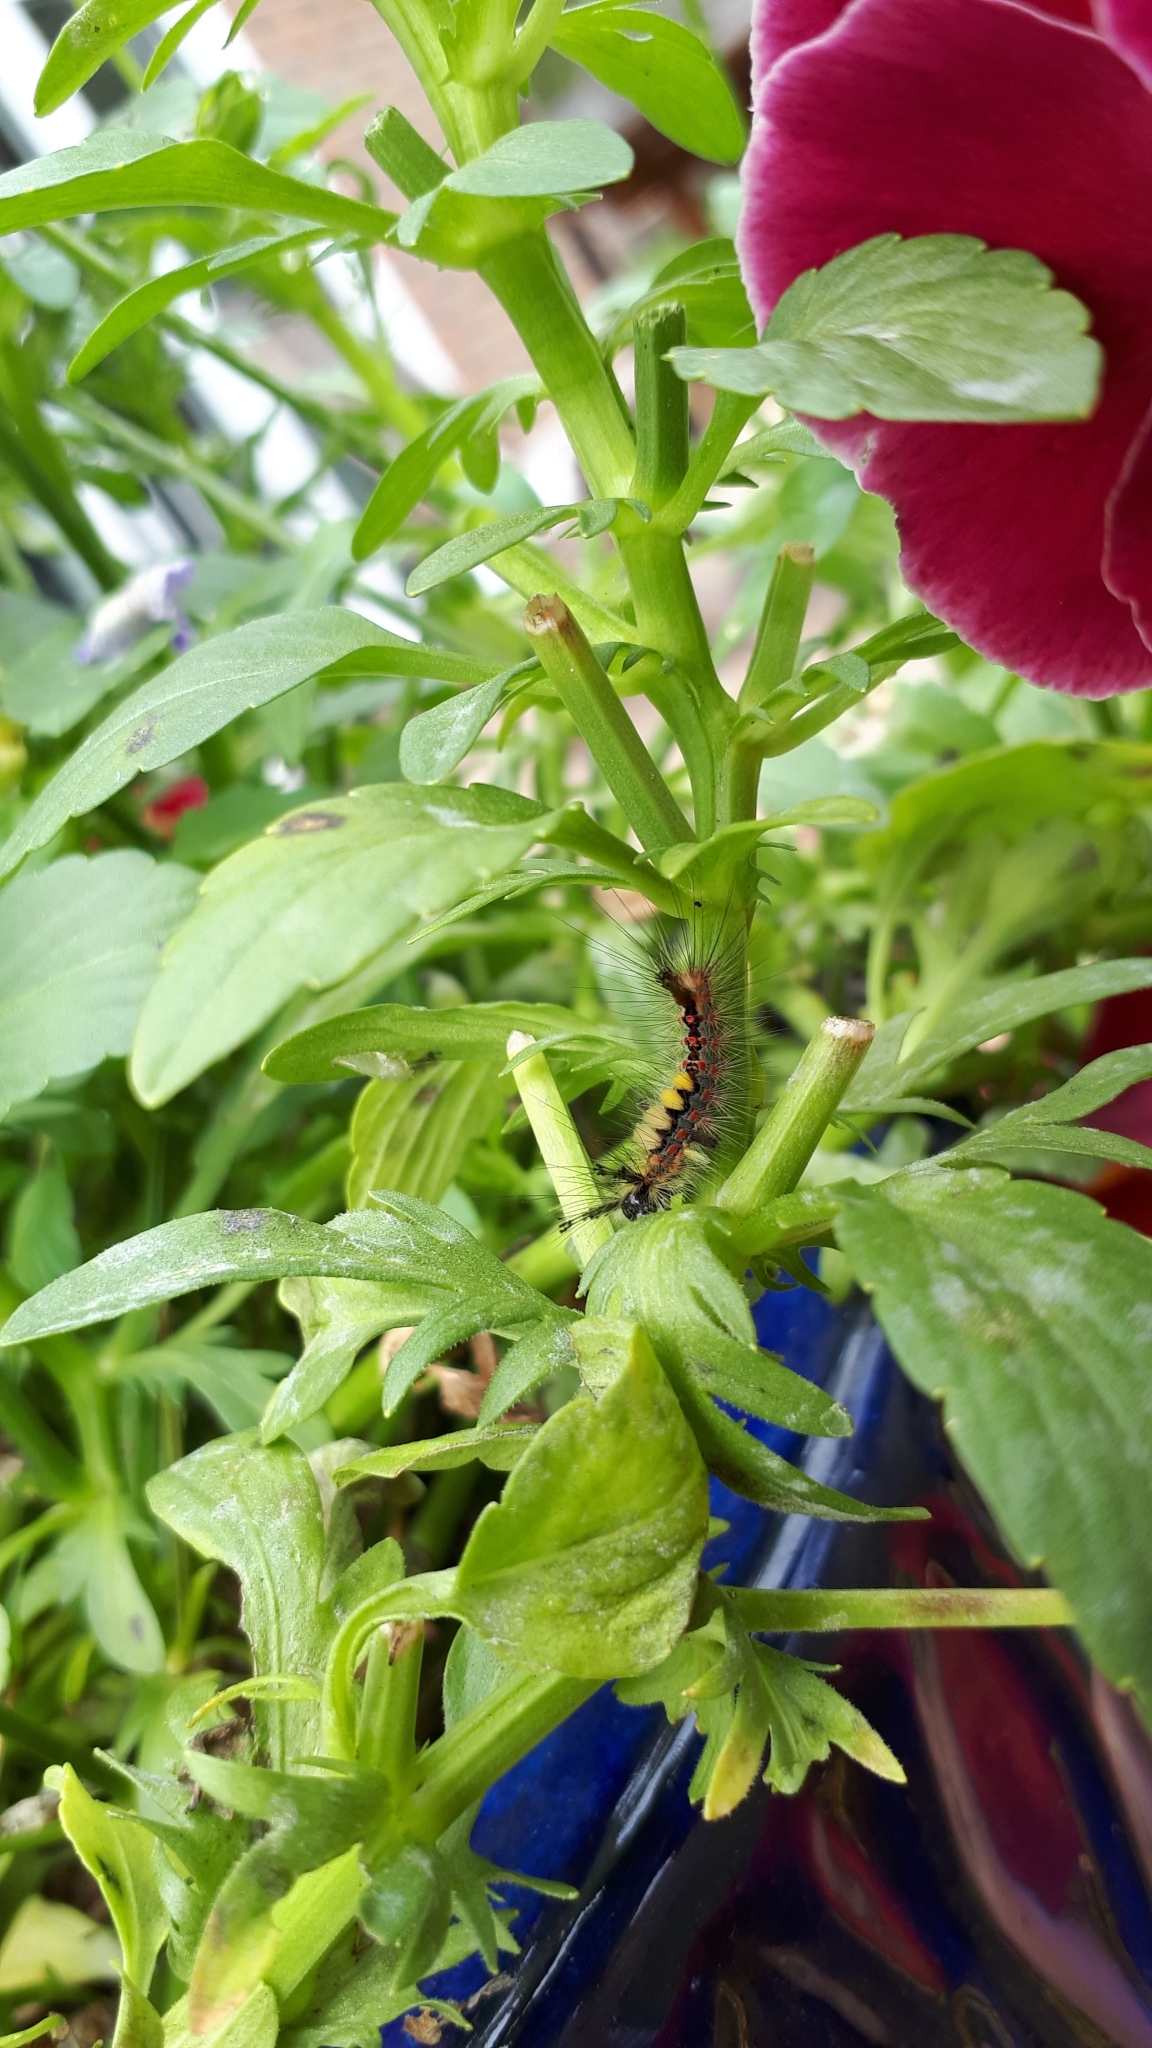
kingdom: Animalia
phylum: Arthropoda
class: Insecta
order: Lepidoptera
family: Erebidae
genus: Orgyia
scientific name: Orgyia antiqua
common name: Vapourer
